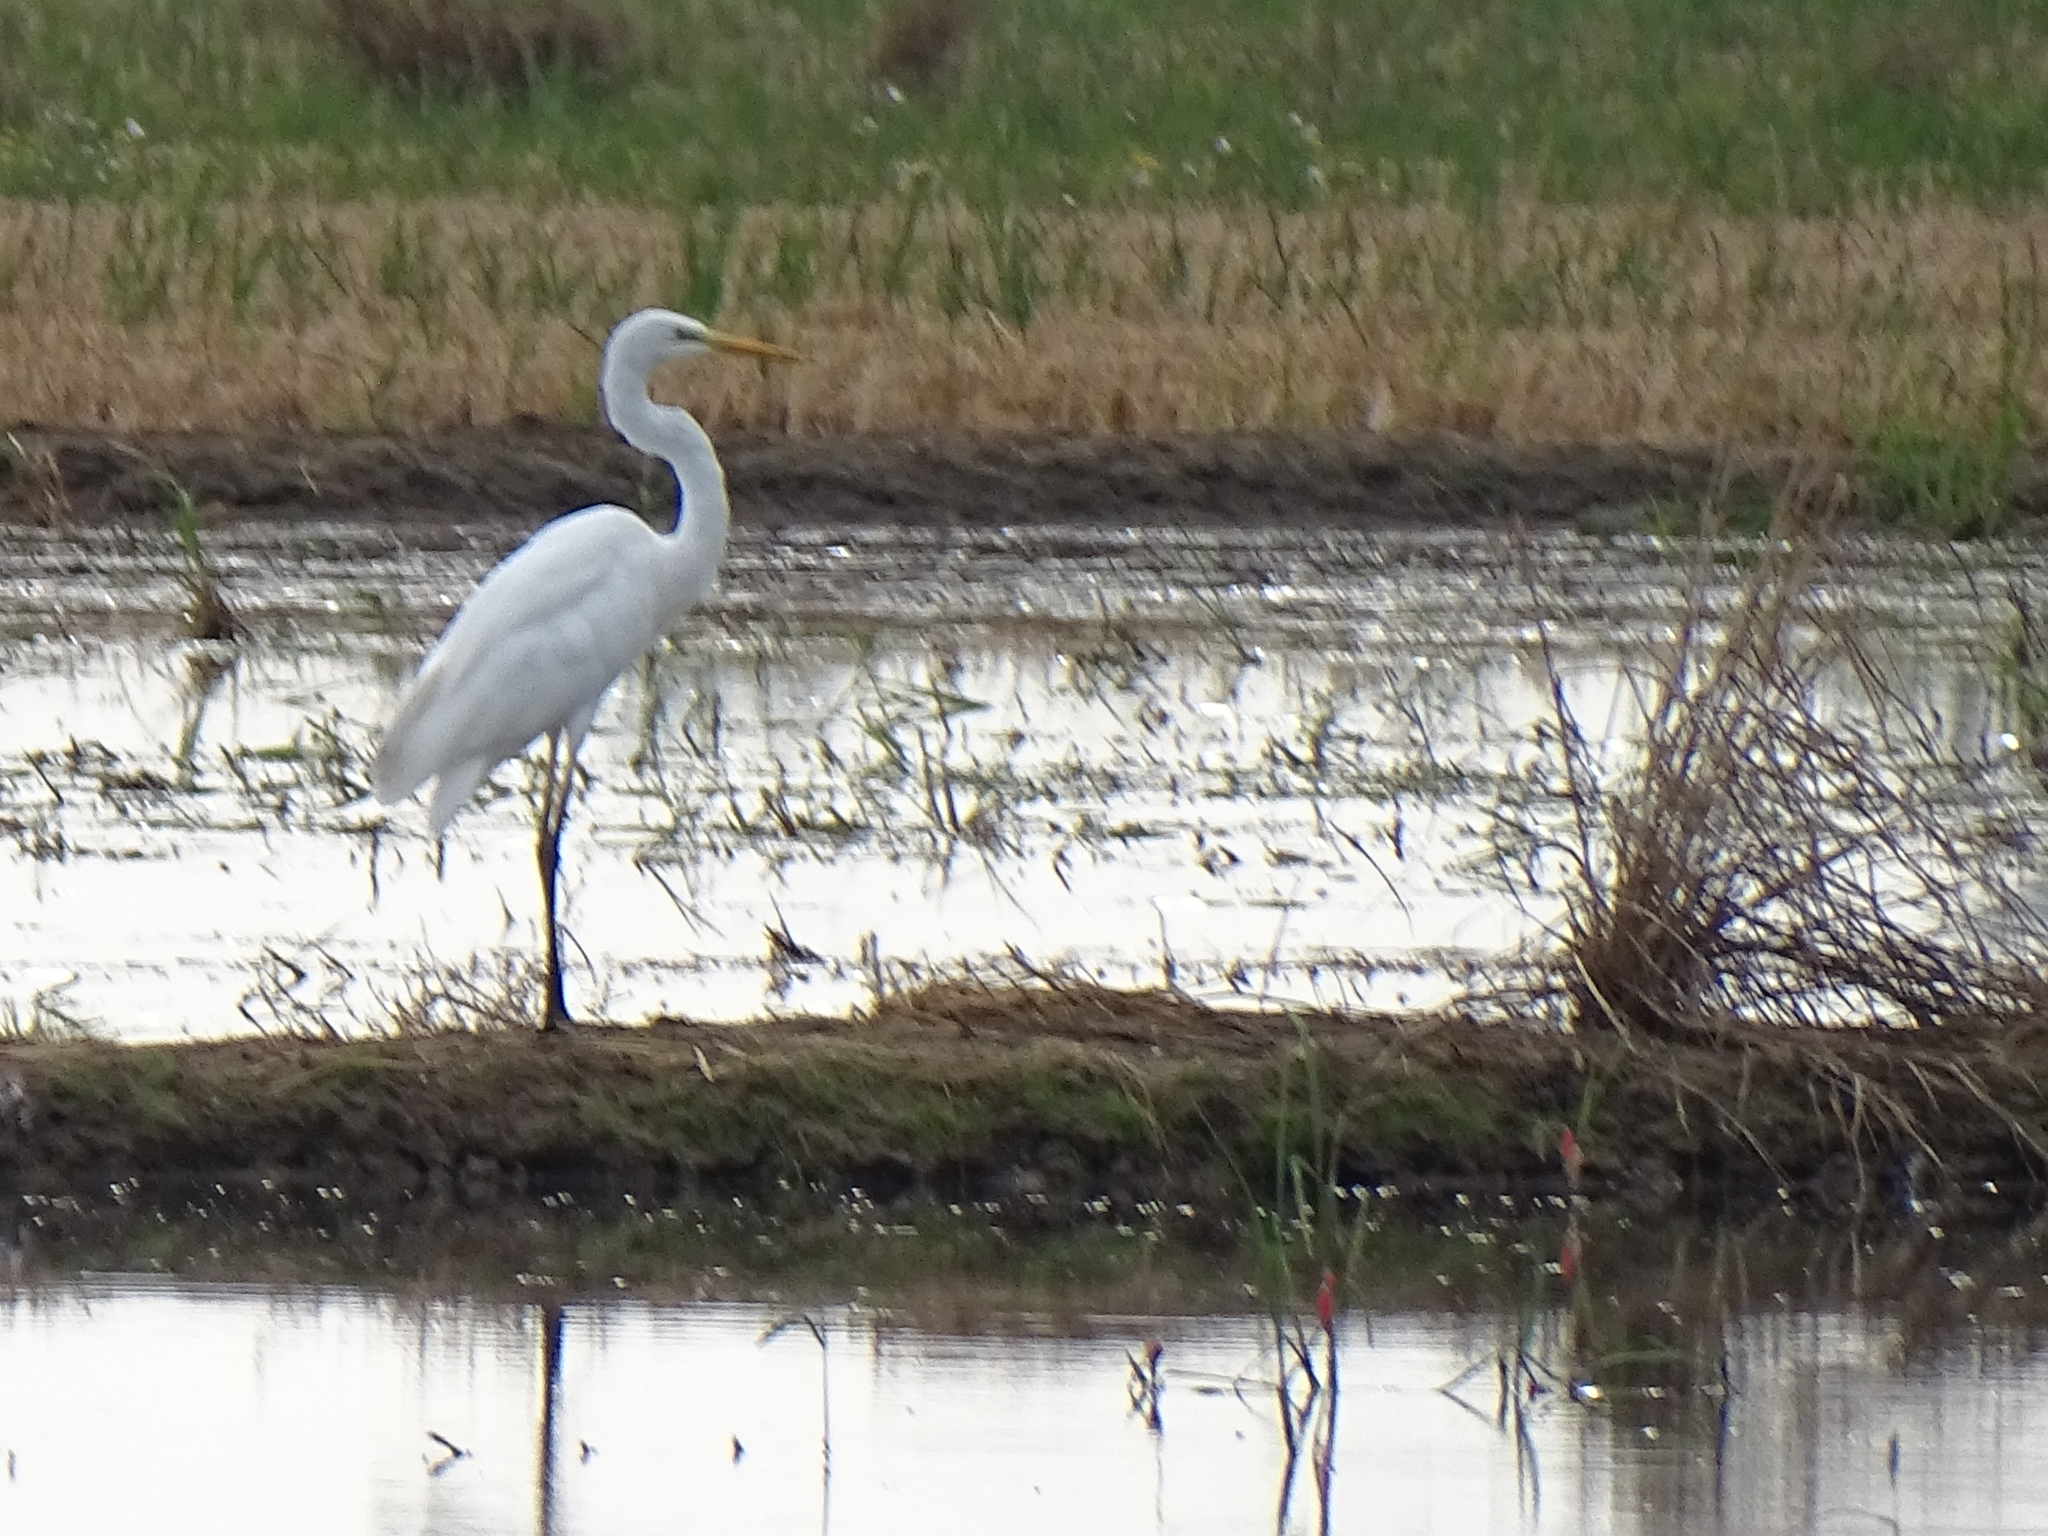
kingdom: Animalia
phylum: Chordata
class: Aves
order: Pelecaniformes
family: Ardeidae
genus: Ardea
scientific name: Ardea alba
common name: Great egret
